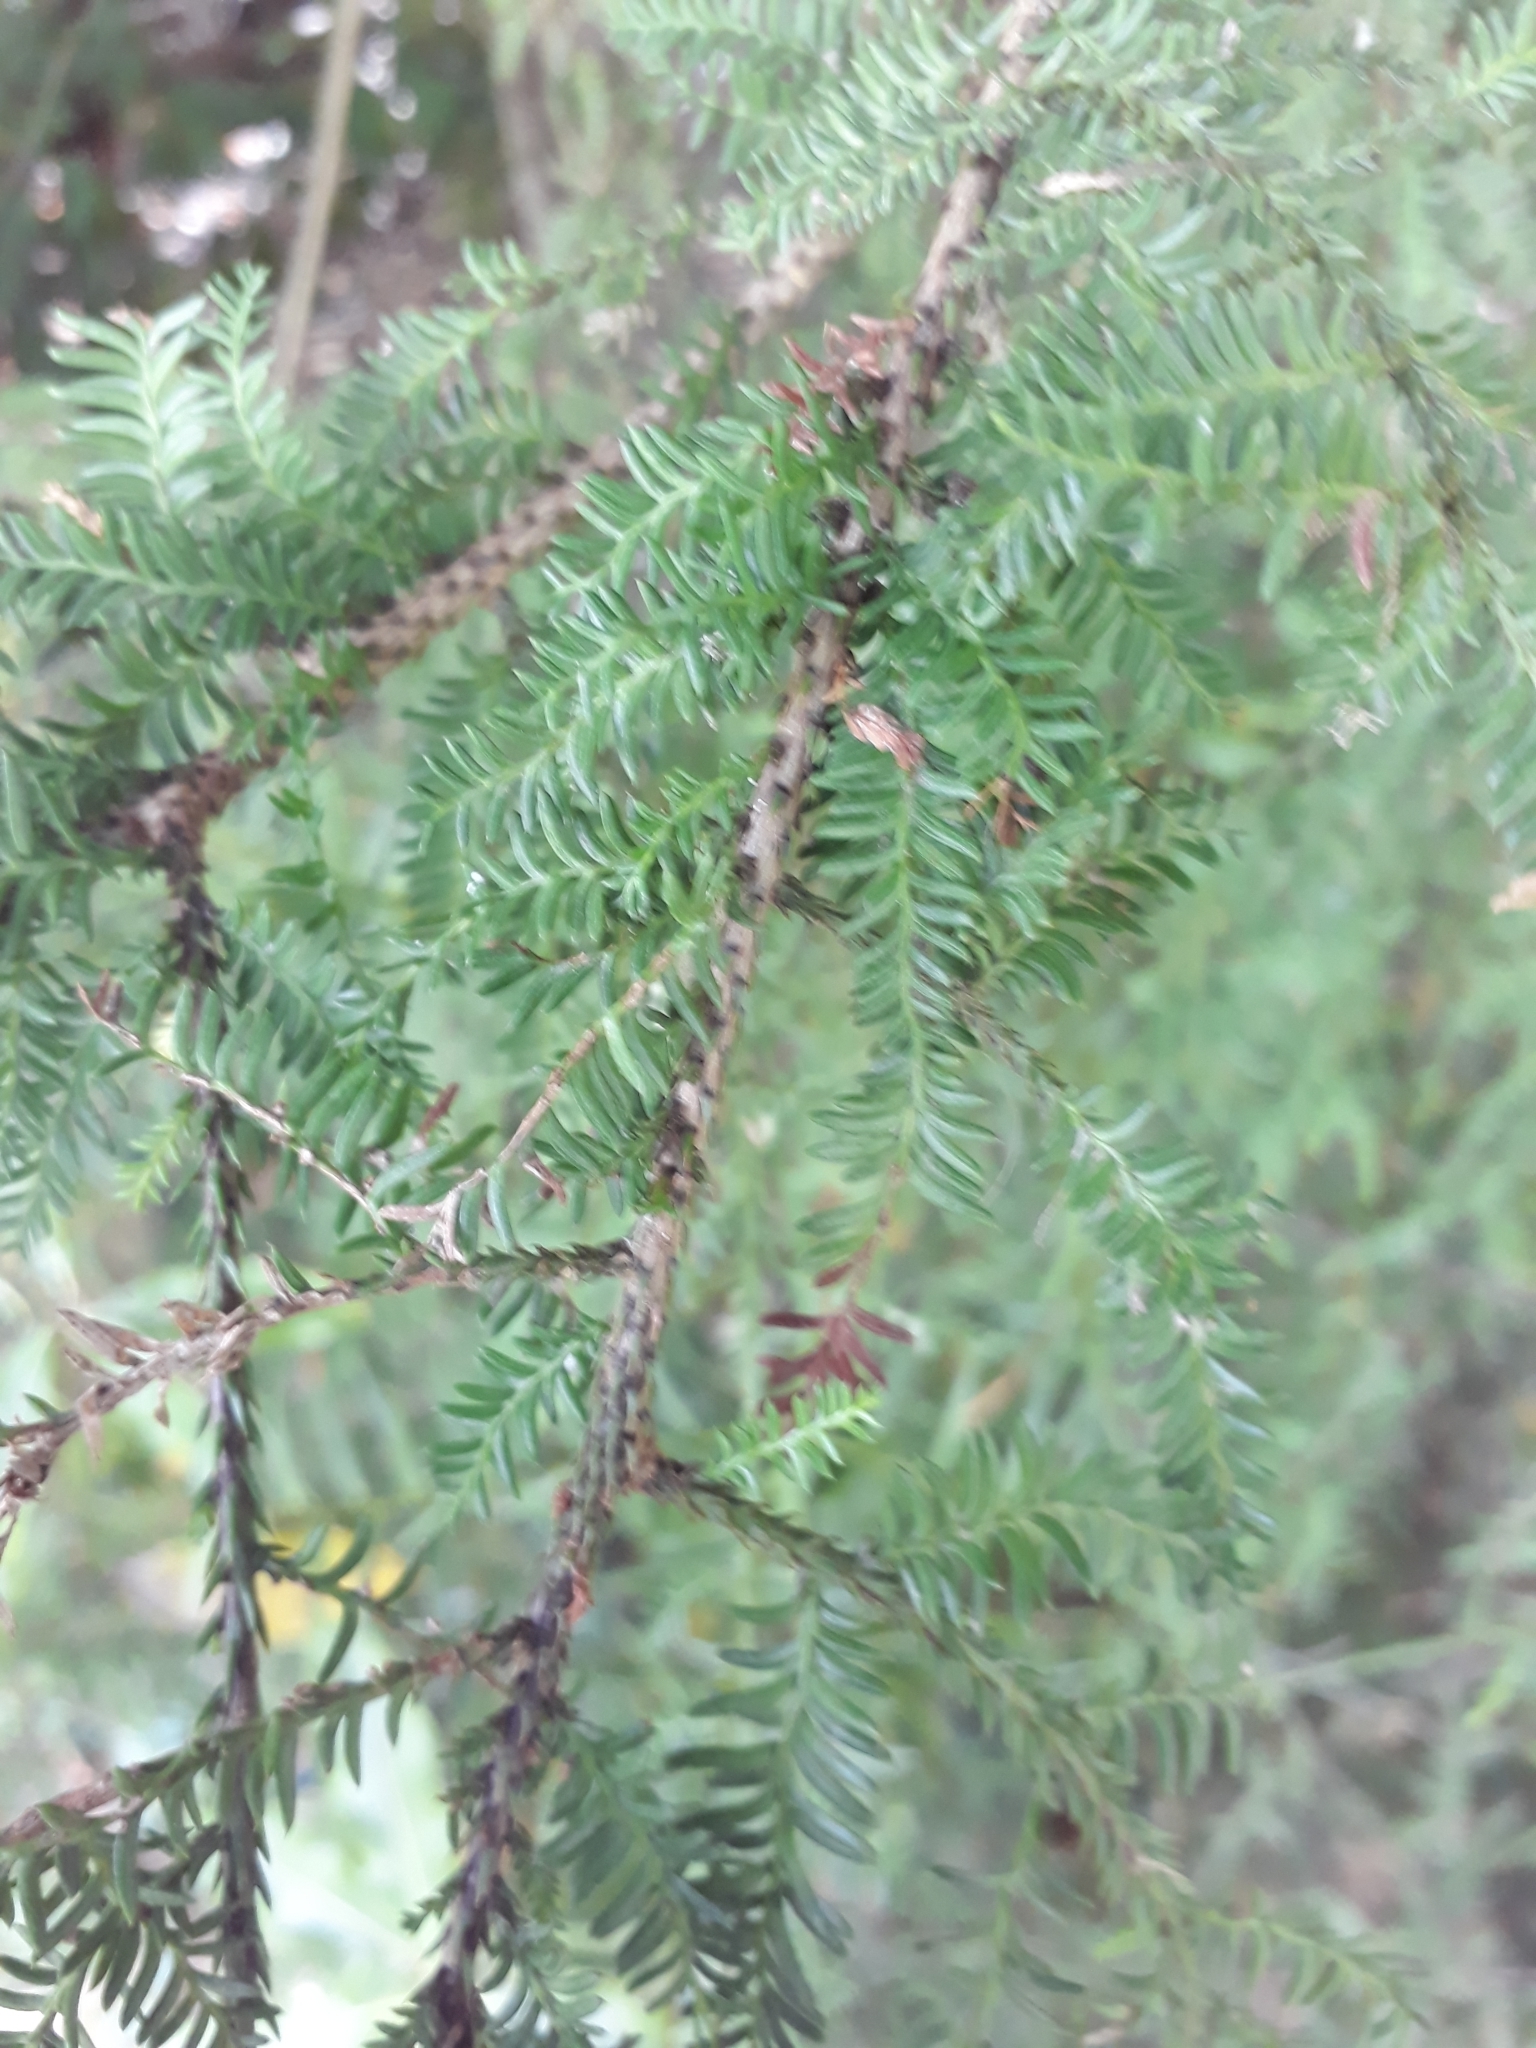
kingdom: Plantae
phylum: Tracheophyta
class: Pinopsida
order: Pinales
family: Podocarpaceae
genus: Dacrycarpus
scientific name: Dacrycarpus dacrydioides
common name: White pine
